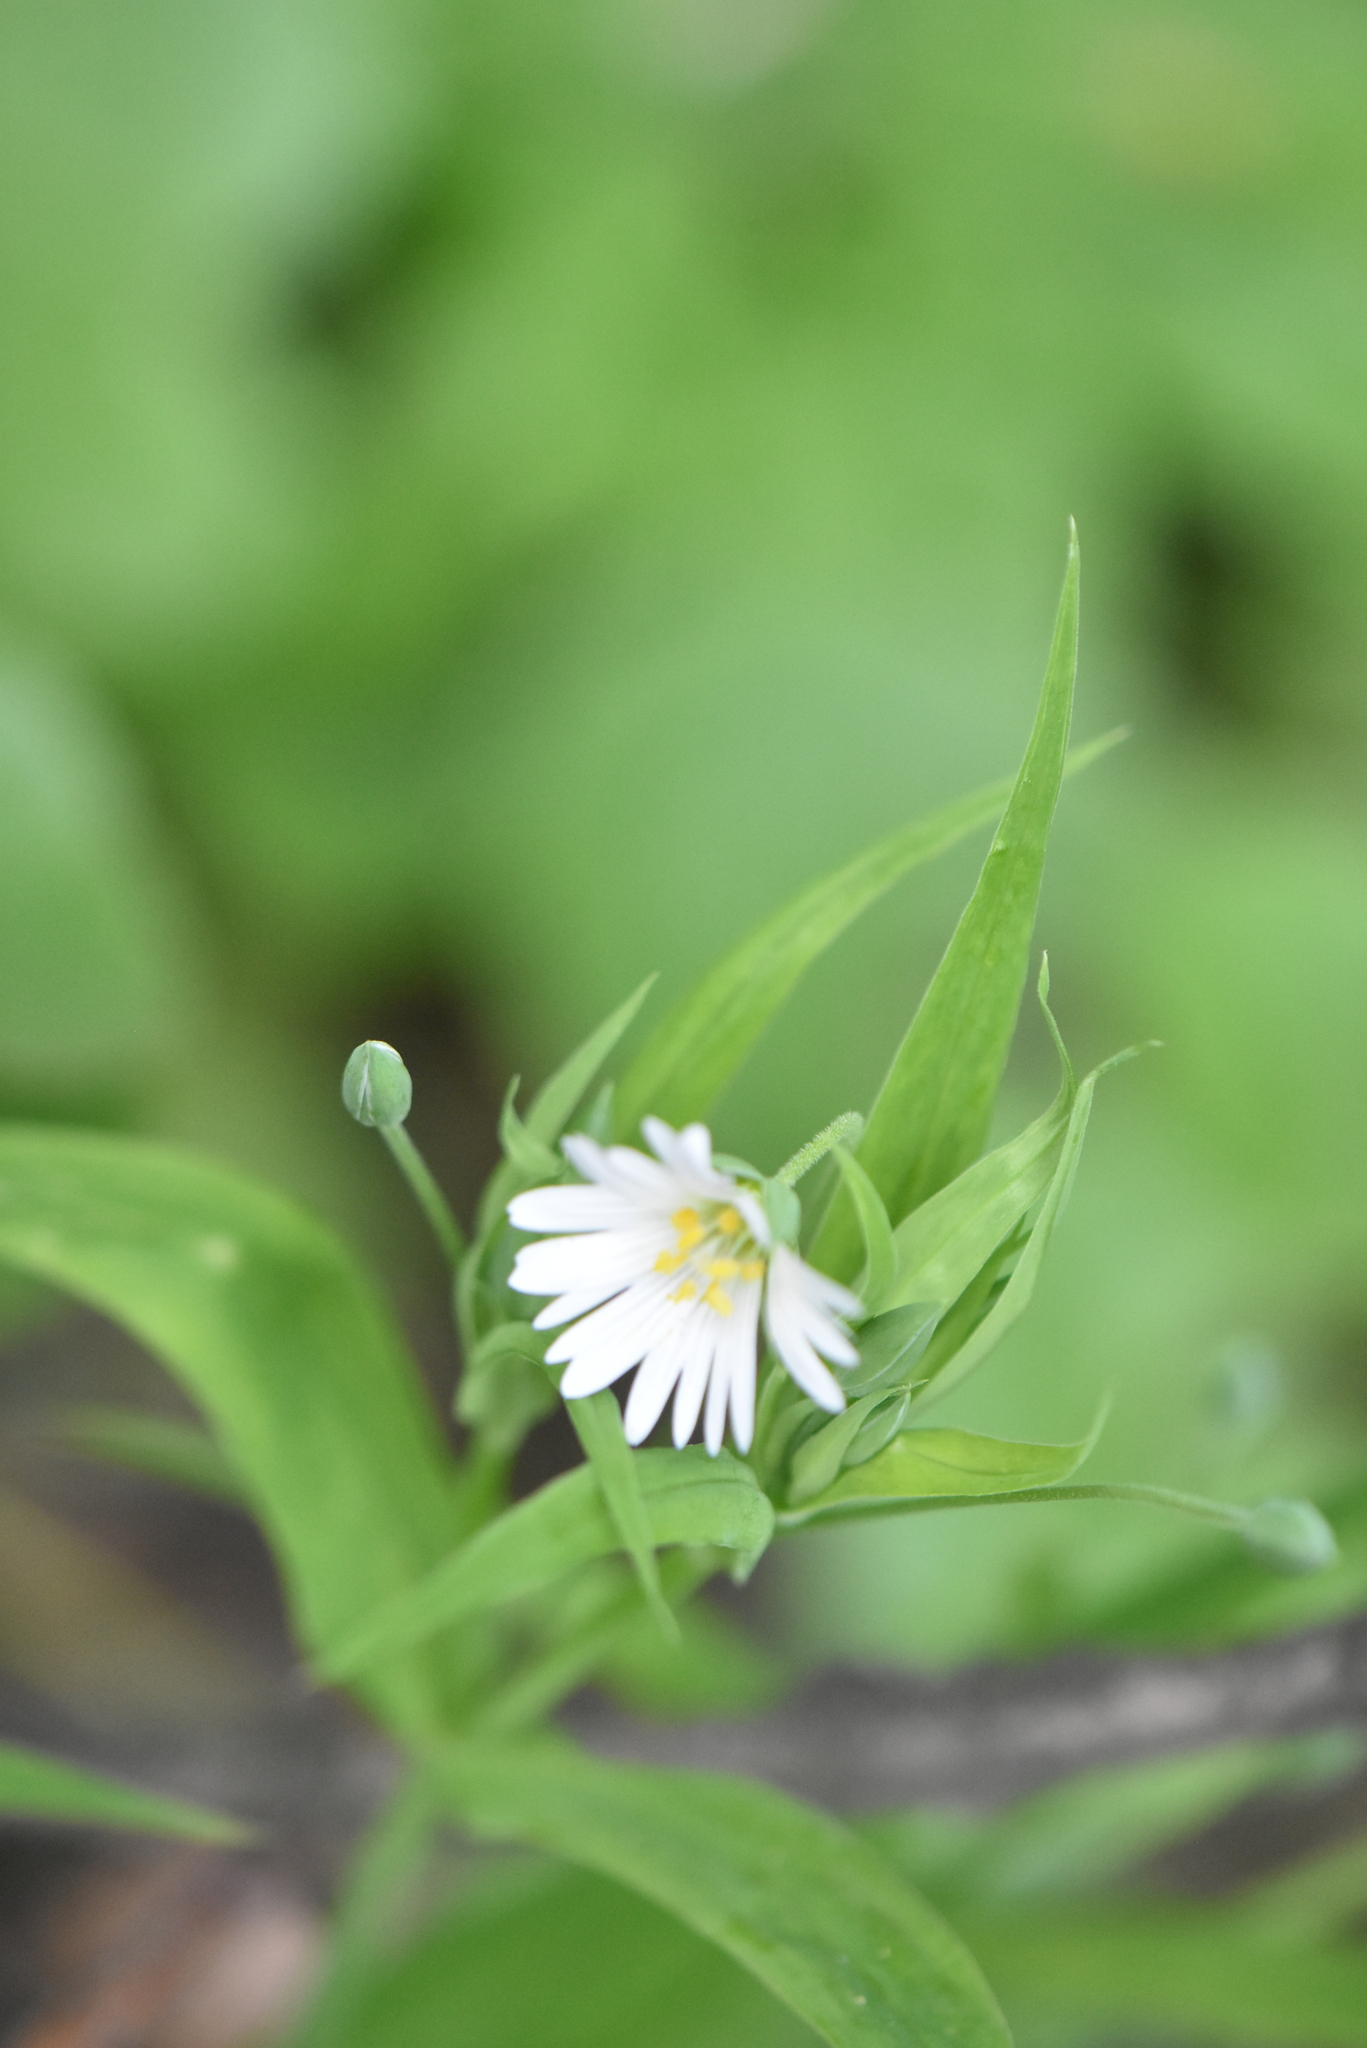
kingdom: Plantae
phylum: Tracheophyta
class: Magnoliopsida
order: Caryophyllales
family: Caryophyllaceae
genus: Rabelera
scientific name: Rabelera holostea
